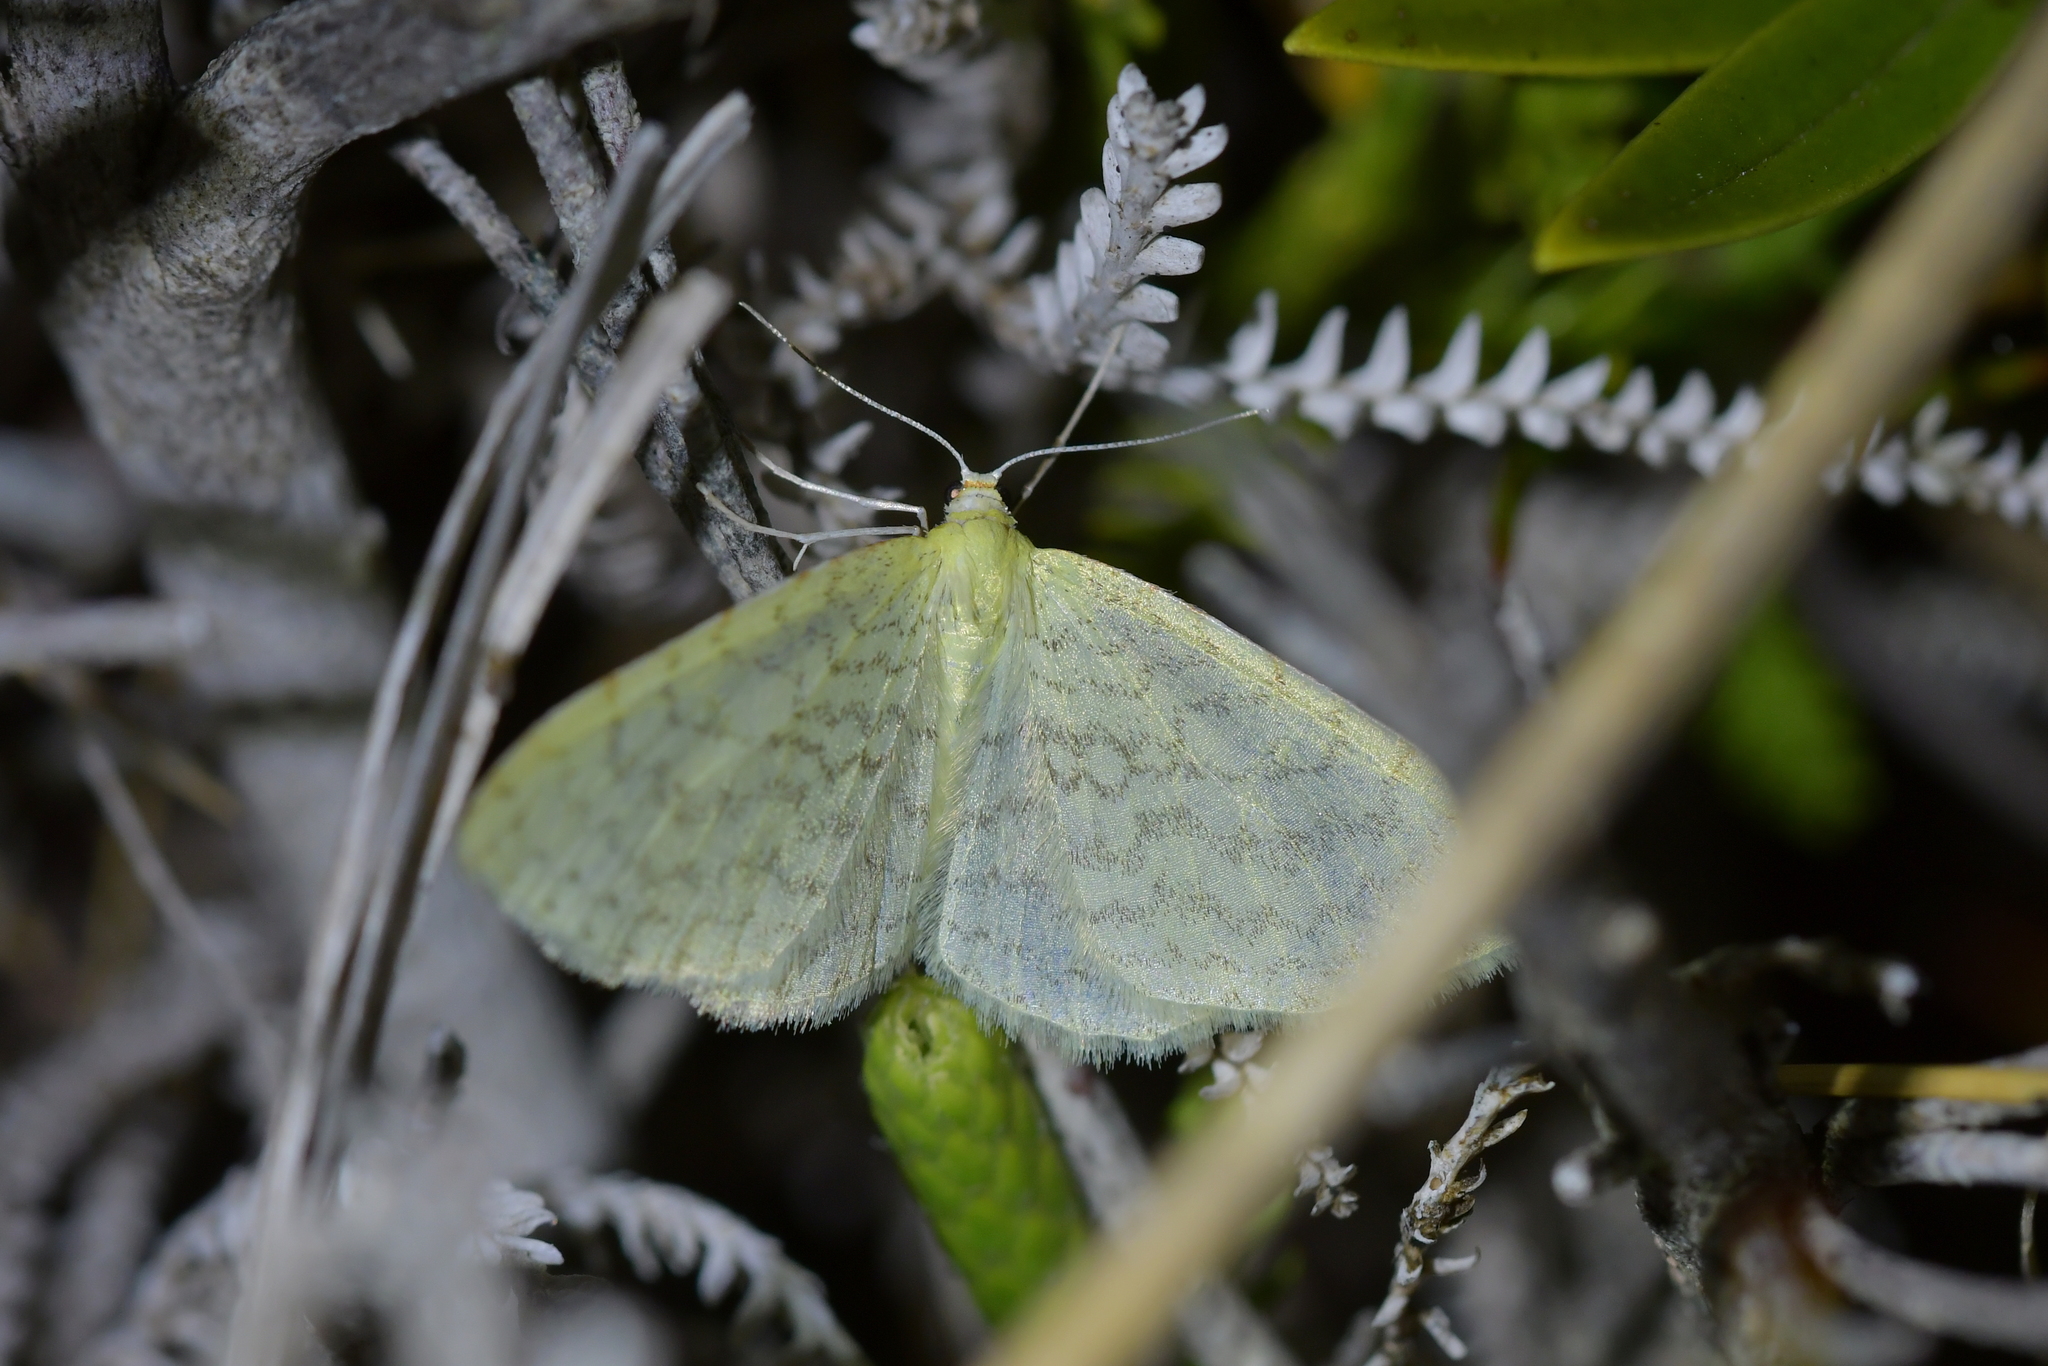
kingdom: Animalia
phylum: Arthropoda
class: Insecta
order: Lepidoptera
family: Geometridae
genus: Epiphryne
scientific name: Epiphryne undosata
